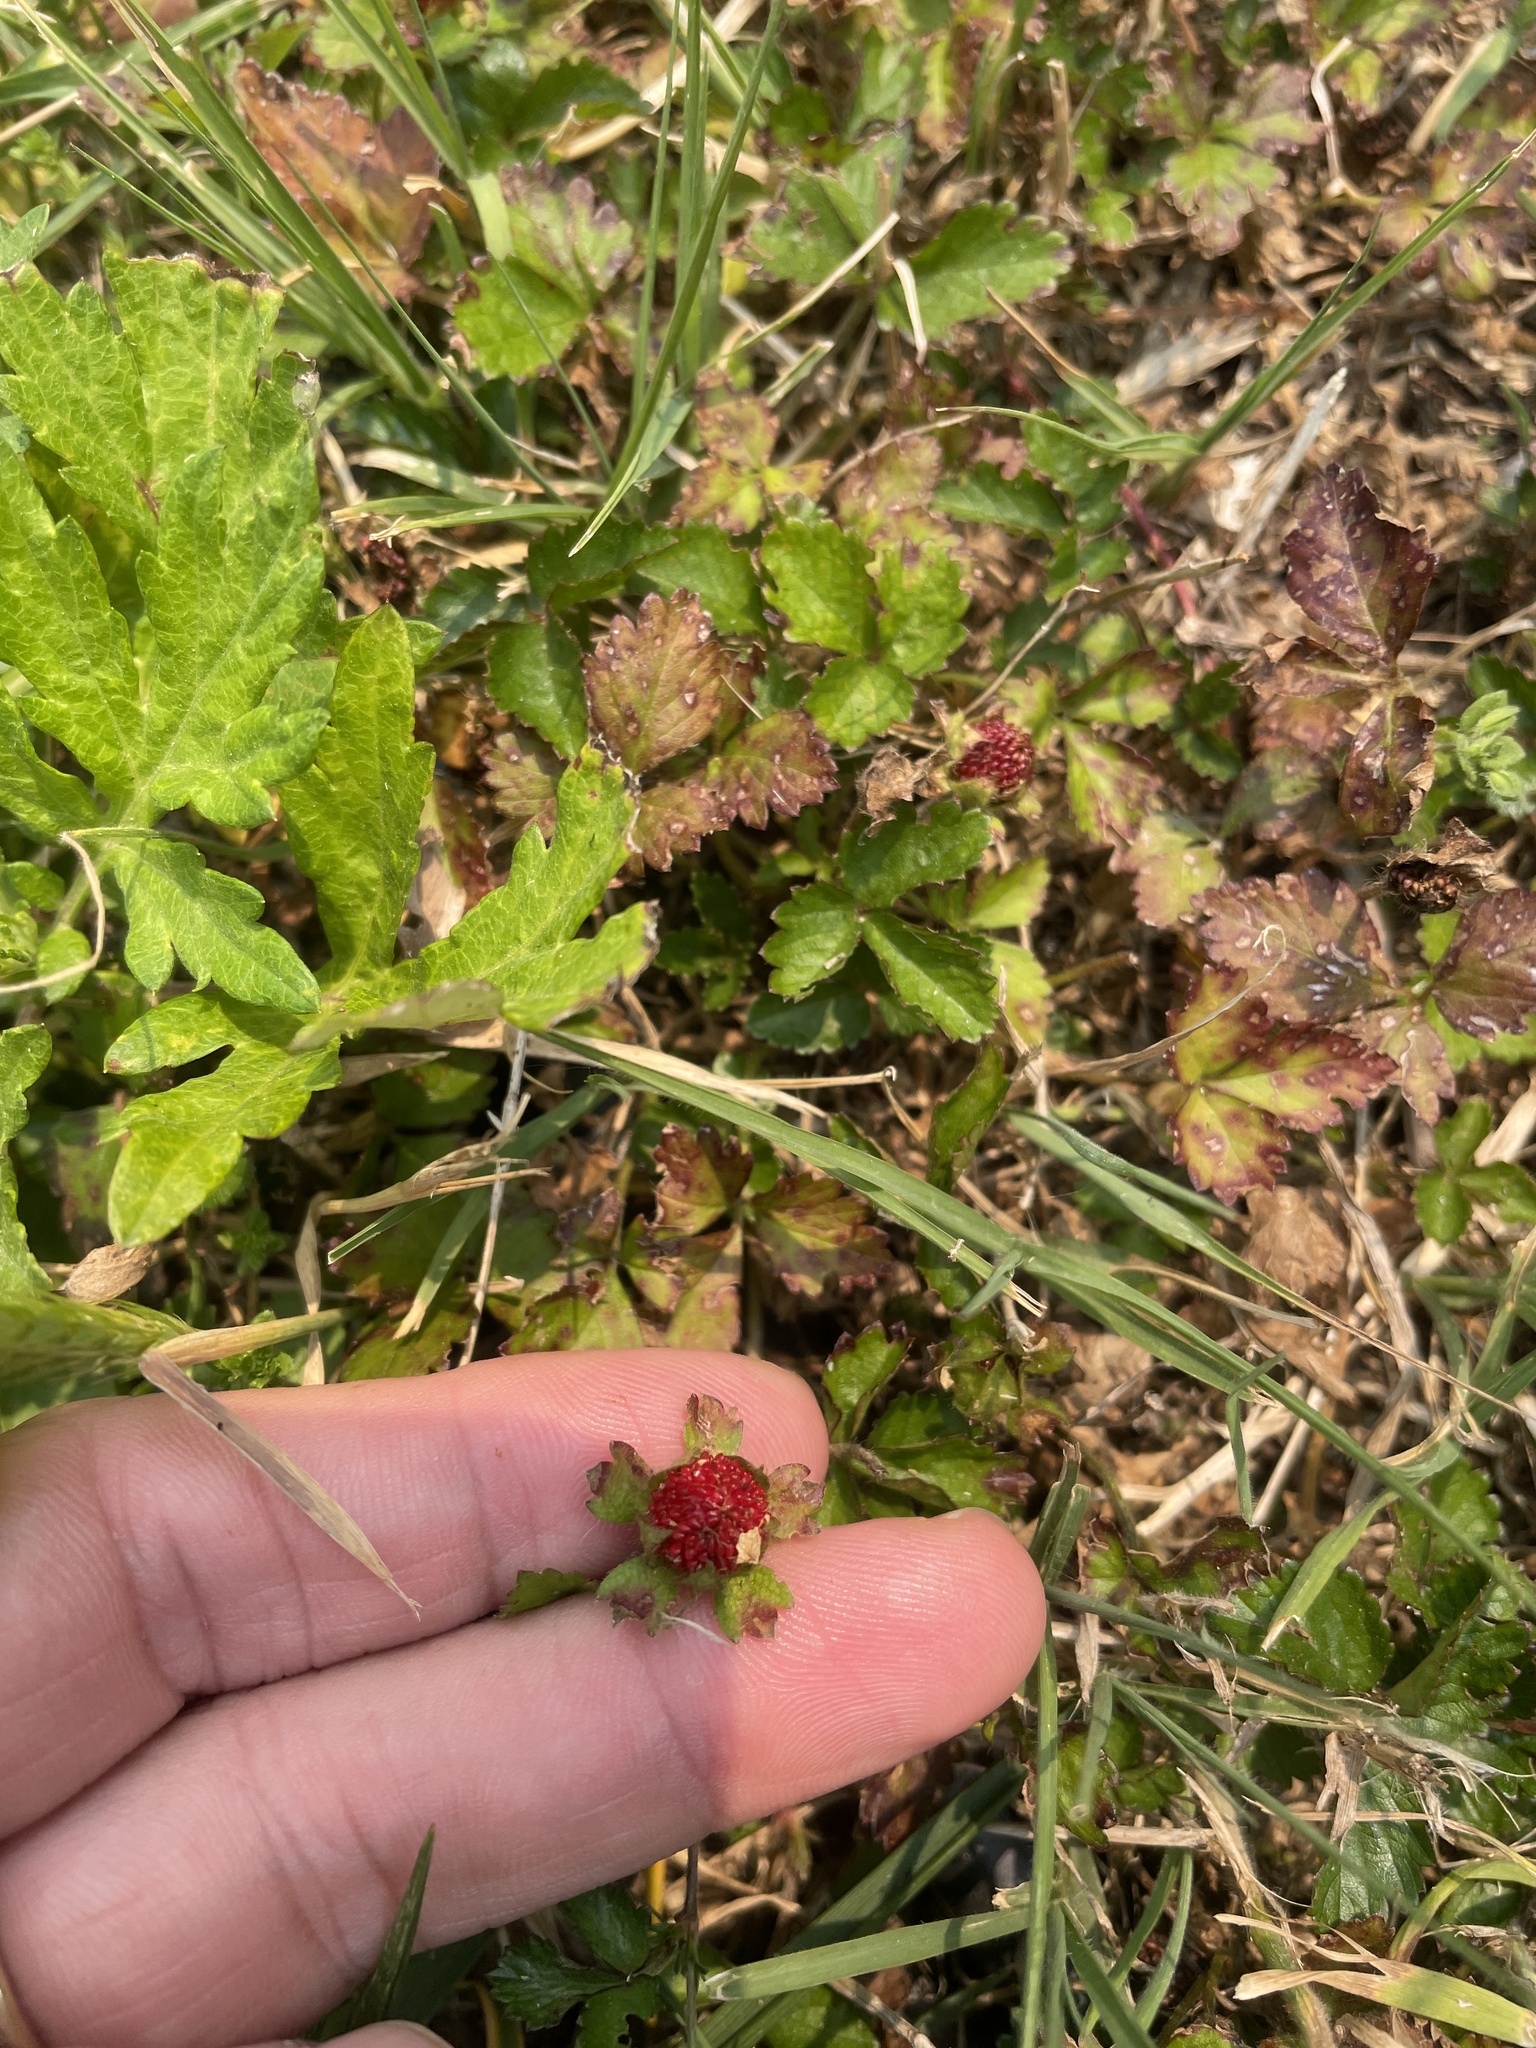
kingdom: Plantae
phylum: Tracheophyta
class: Magnoliopsida
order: Rosales
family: Rosaceae
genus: Potentilla
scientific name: Potentilla indica
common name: Yellow-flowered strawberry
